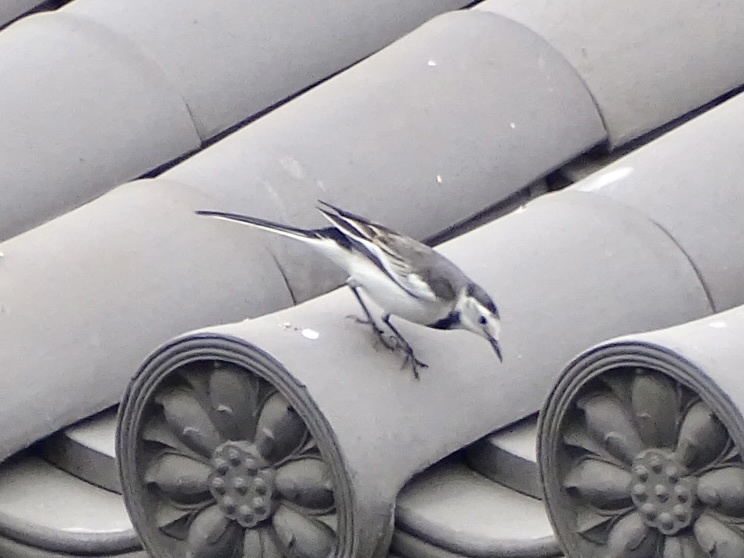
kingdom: Animalia
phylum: Chordata
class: Aves
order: Passeriformes
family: Motacillidae
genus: Motacilla
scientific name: Motacilla alba
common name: White wagtail
